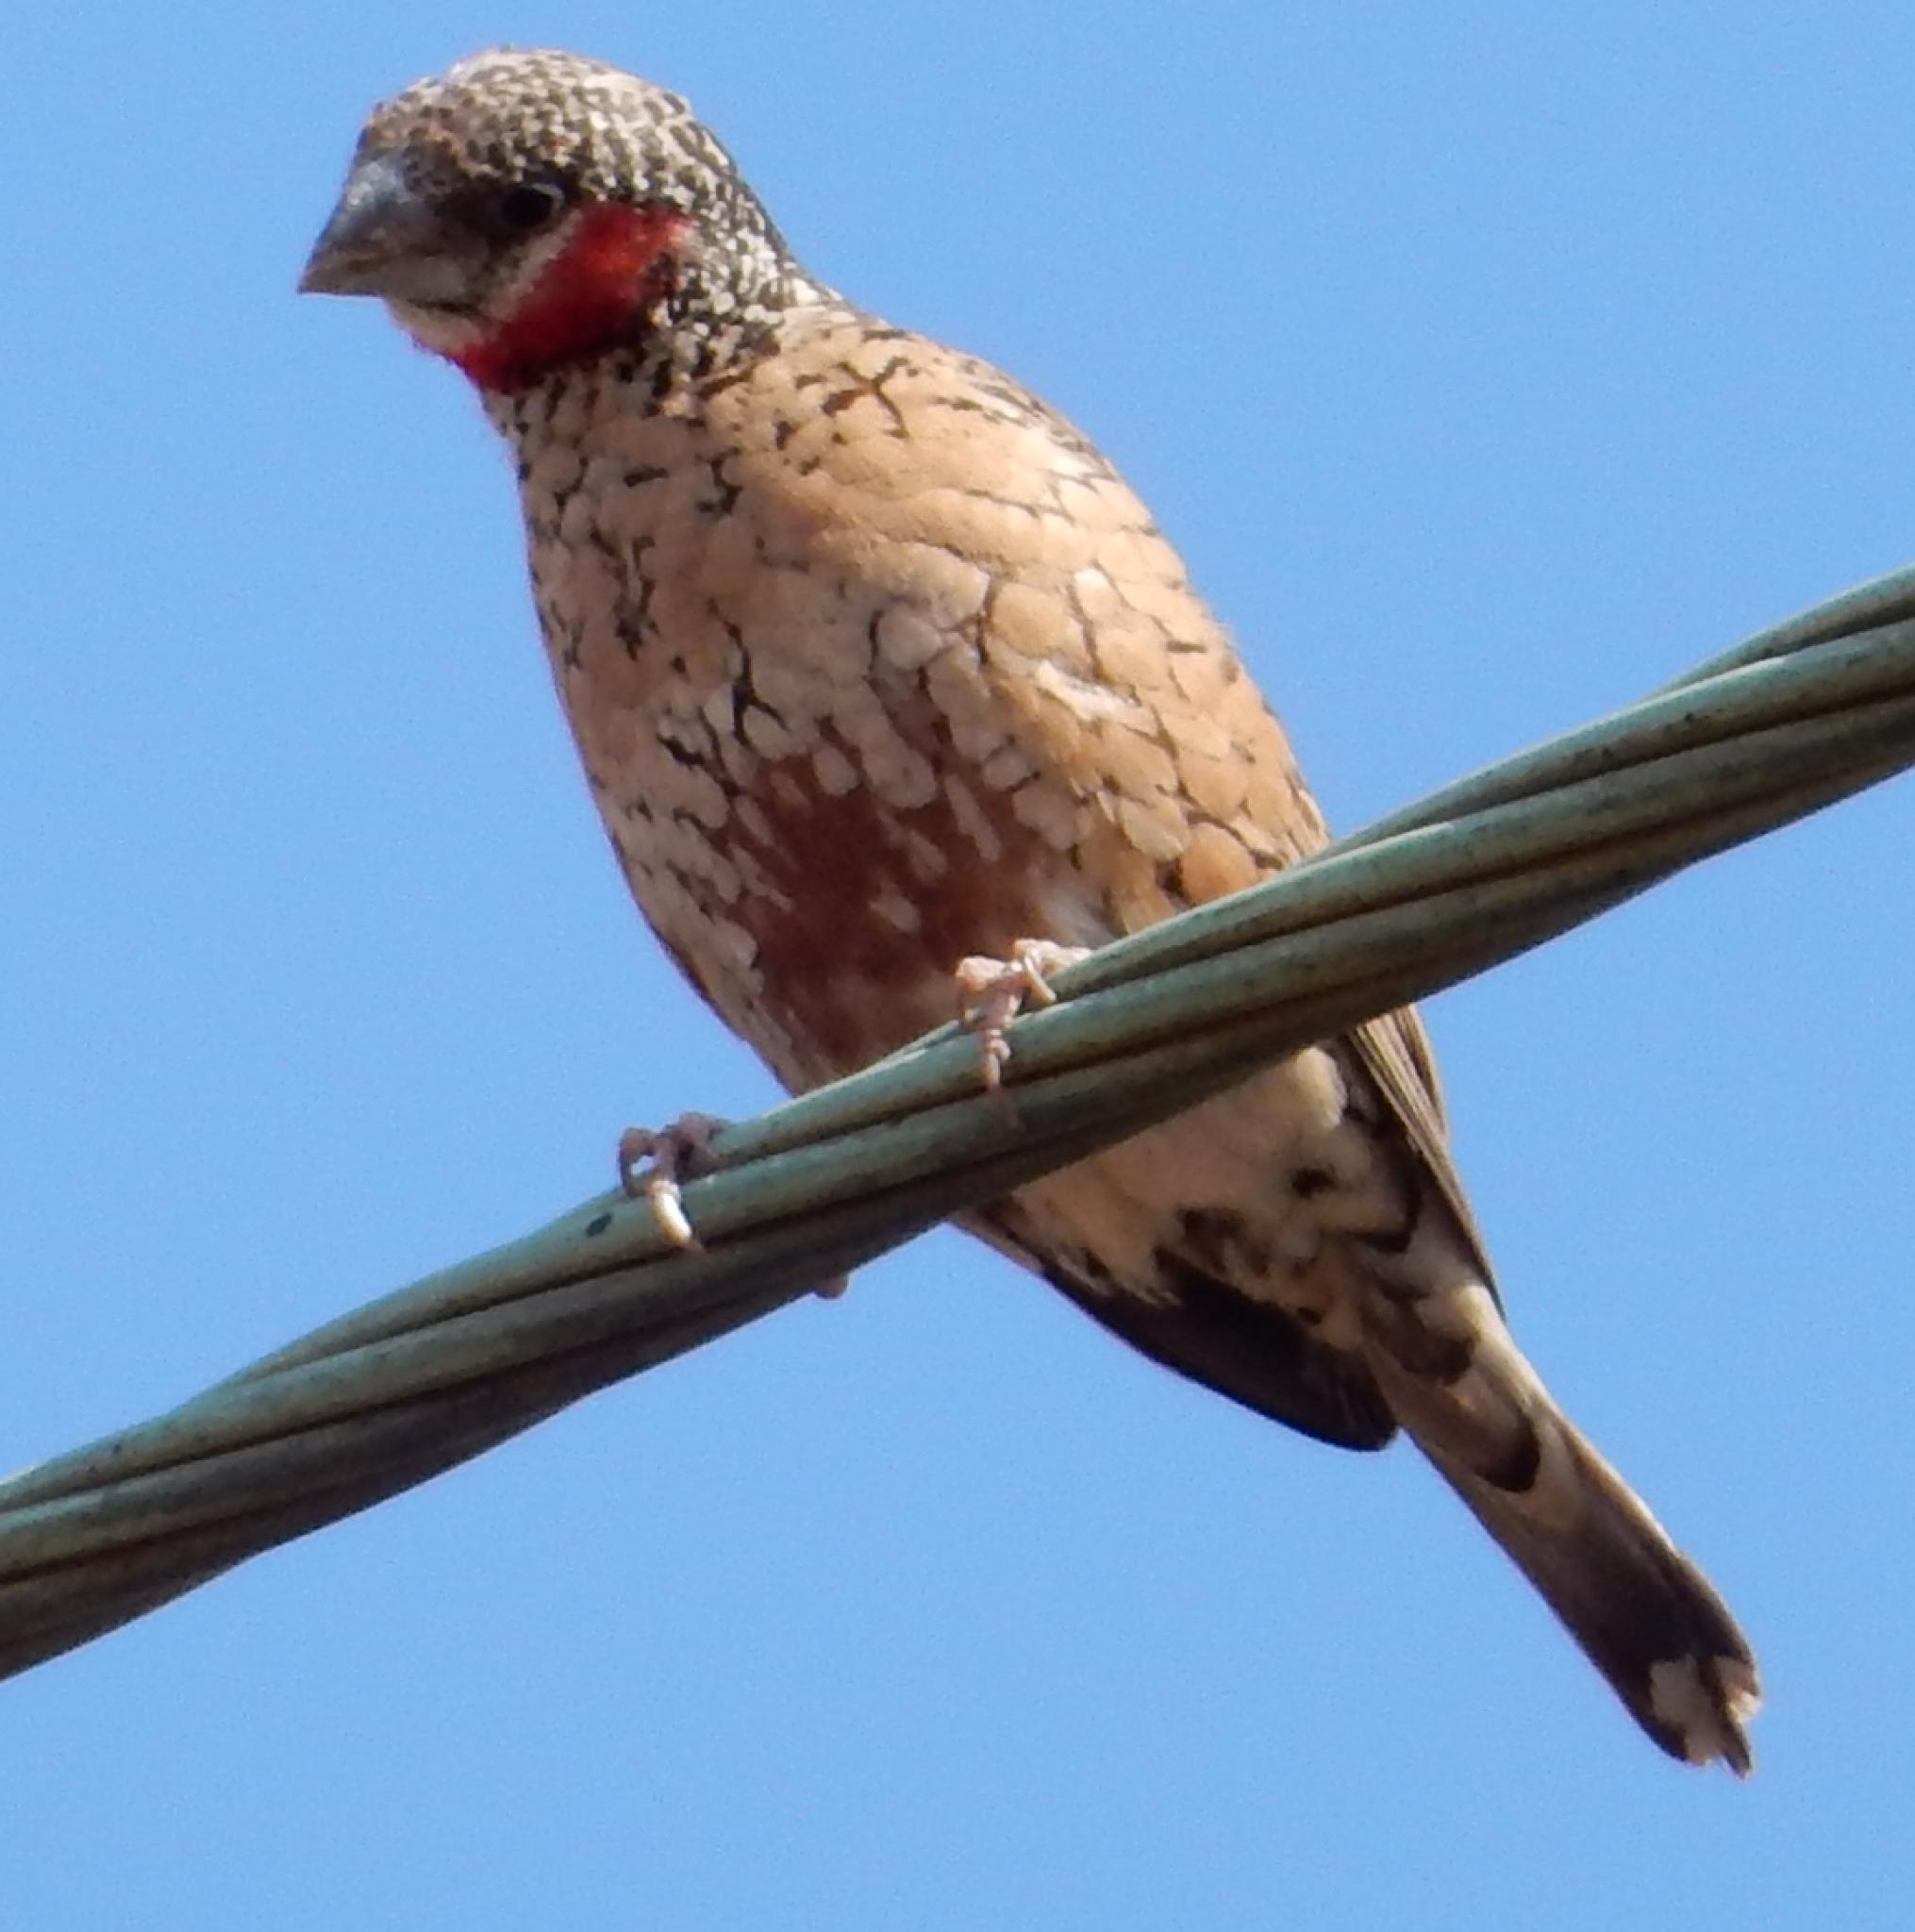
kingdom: Animalia
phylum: Chordata
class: Aves
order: Passeriformes
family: Estrildidae
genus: Amadina
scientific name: Amadina fasciata
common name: Cut-throat finch
